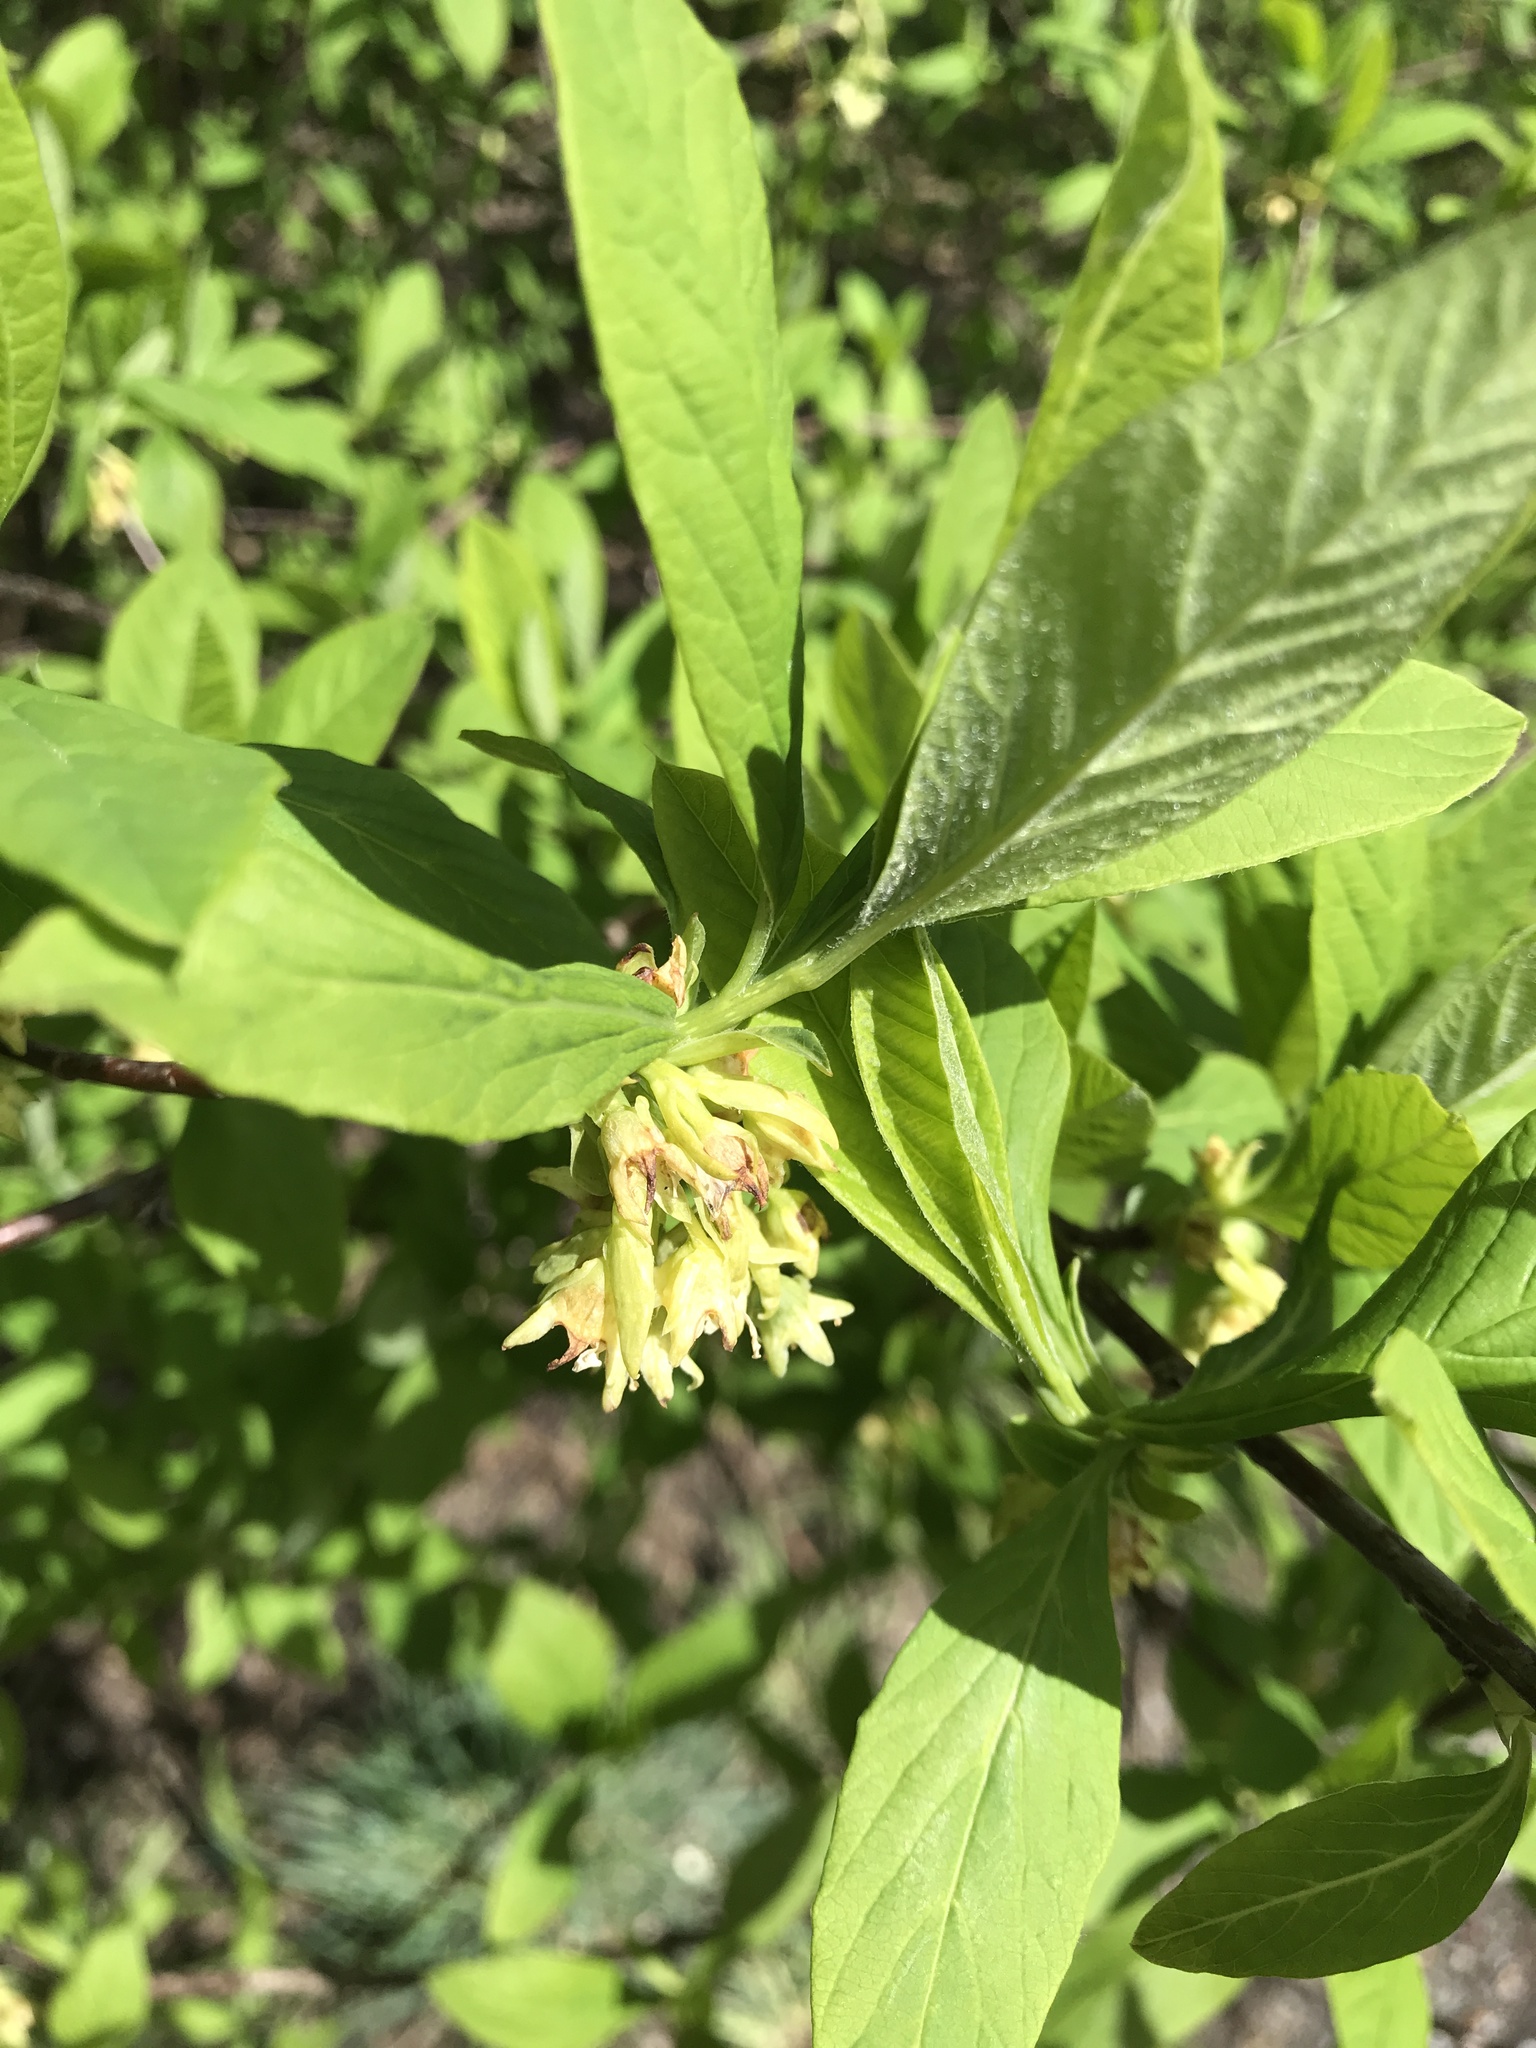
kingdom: Plantae
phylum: Tracheophyta
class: Magnoliopsida
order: Rosales
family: Rosaceae
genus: Oemleria
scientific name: Oemleria cerasiformis
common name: Osoberry
